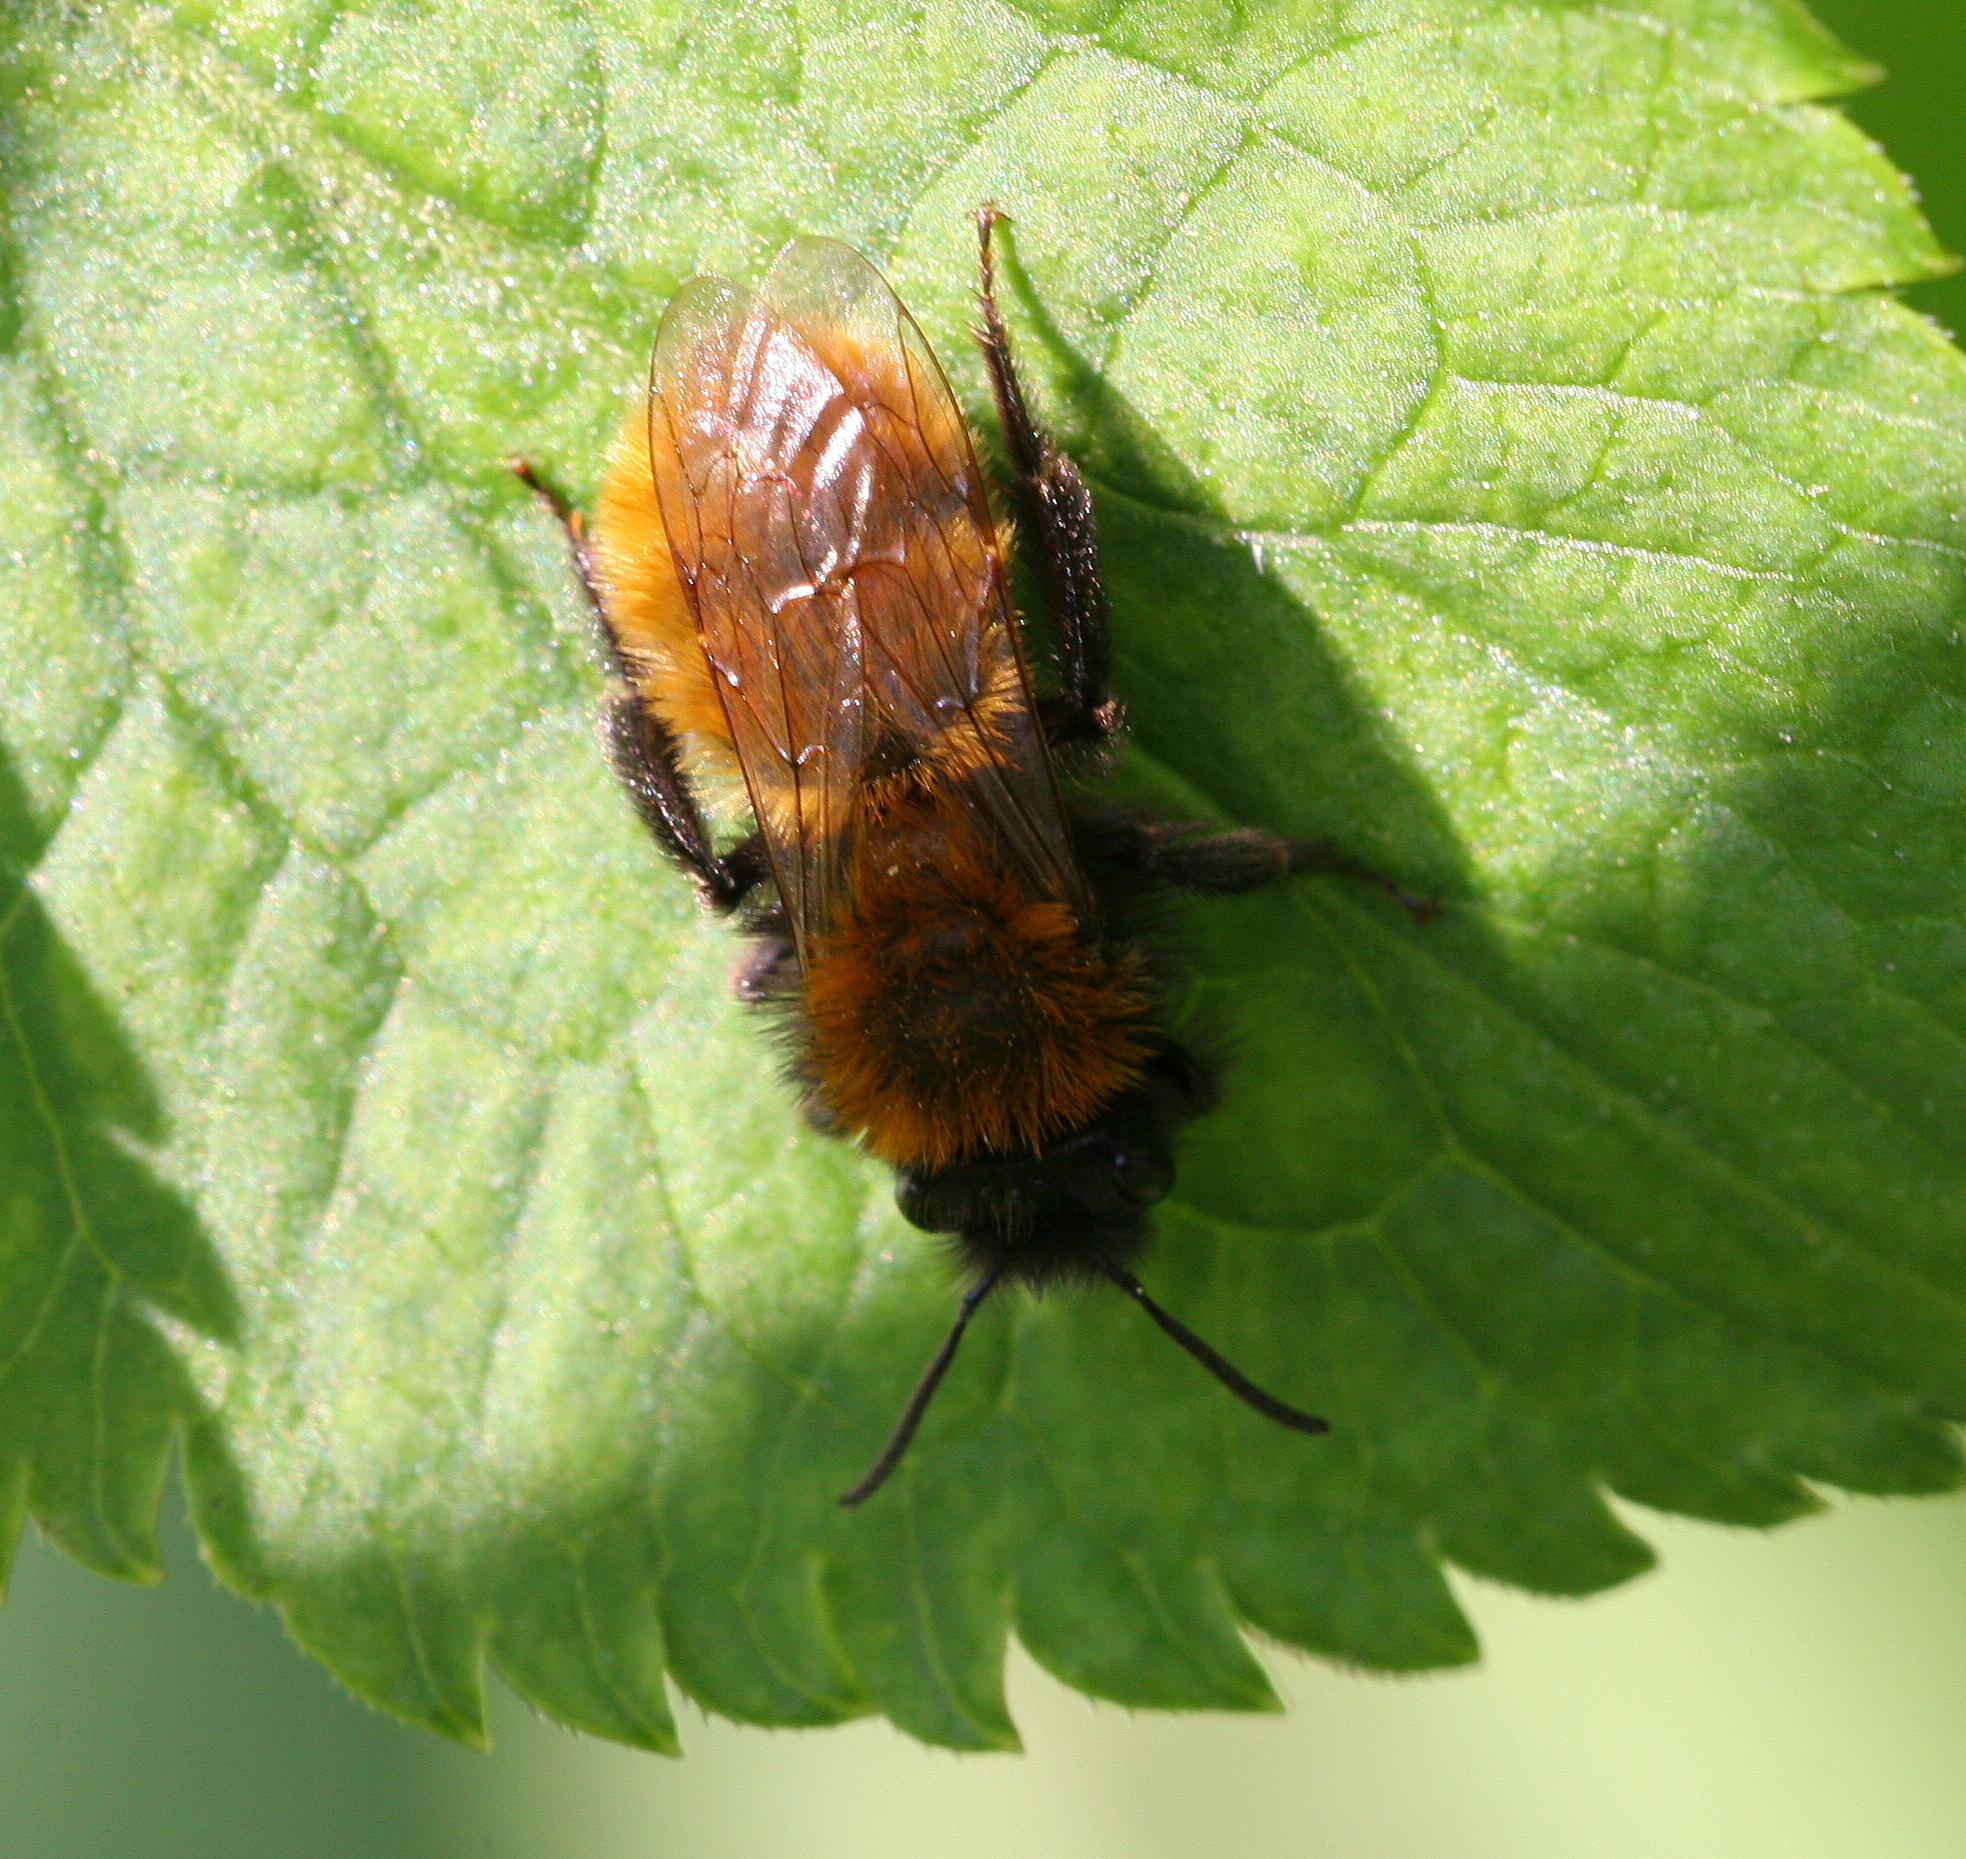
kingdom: Animalia
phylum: Arthropoda
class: Insecta
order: Hymenoptera
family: Andrenidae
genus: Andrena
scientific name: Andrena fulva
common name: Tawny mining bee
